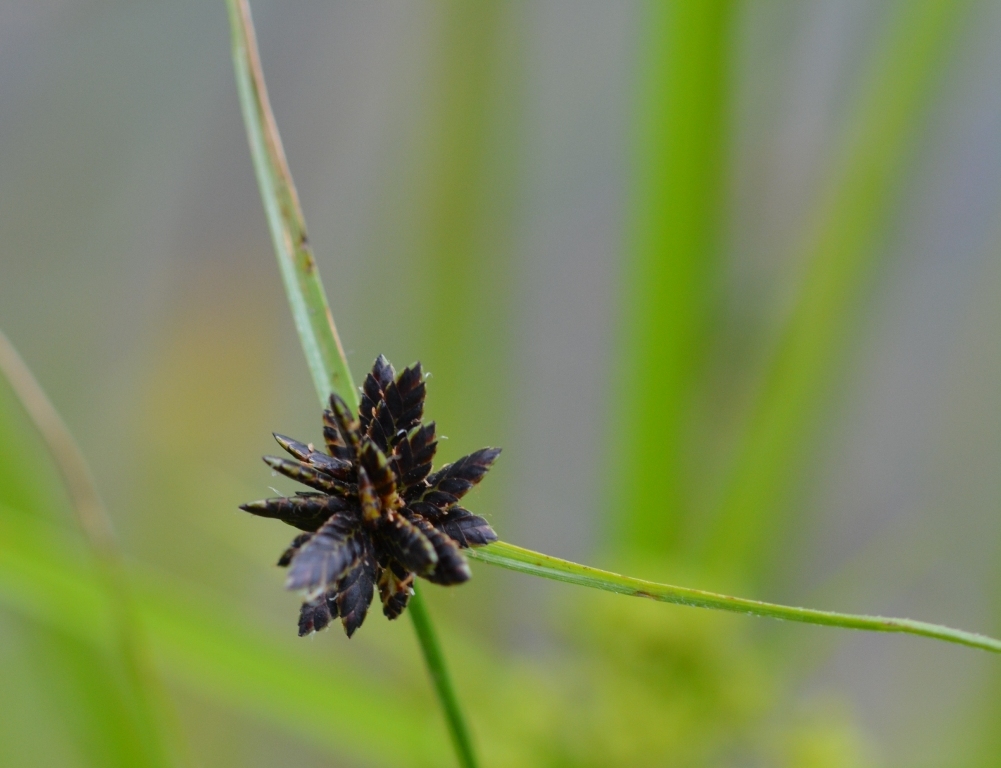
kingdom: Plantae
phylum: Tracheophyta
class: Liliopsida
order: Poales
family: Cyperaceae
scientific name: Cyperaceae
